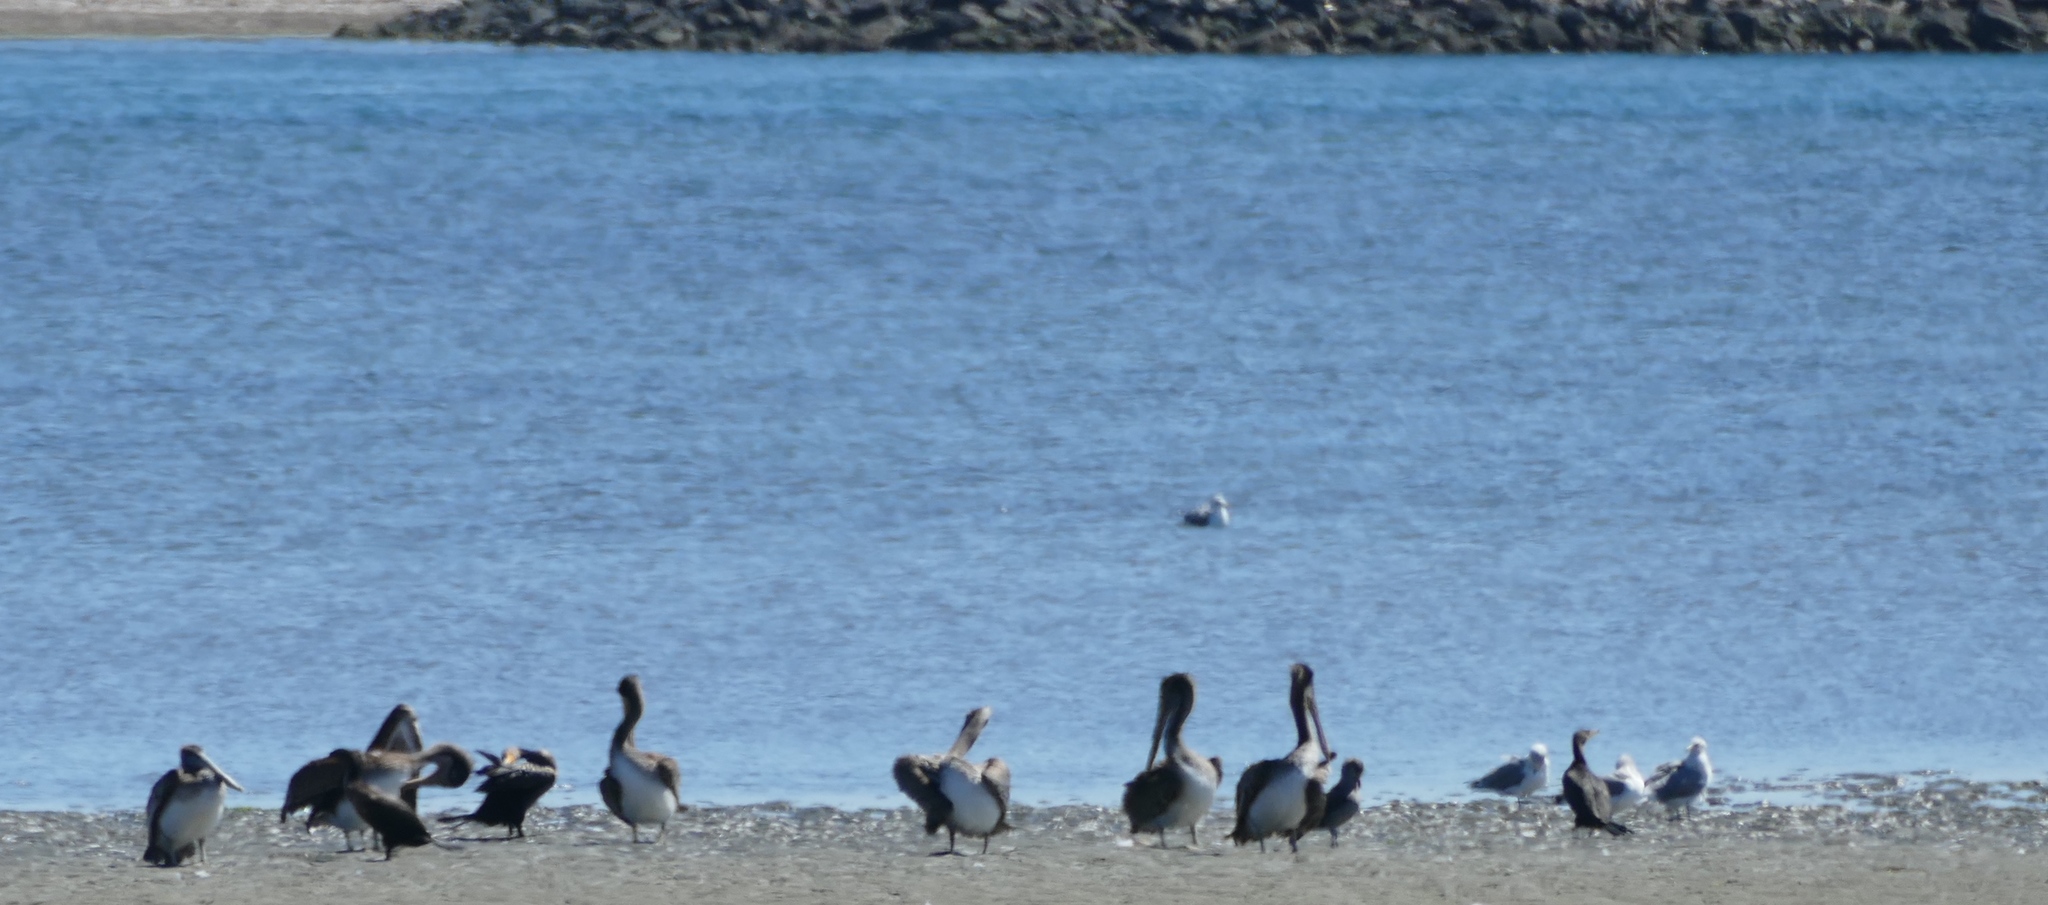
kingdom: Animalia
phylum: Chordata
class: Aves
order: Pelecaniformes
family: Pelecanidae
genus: Pelecanus
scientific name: Pelecanus occidentalis
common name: Brown pelican
